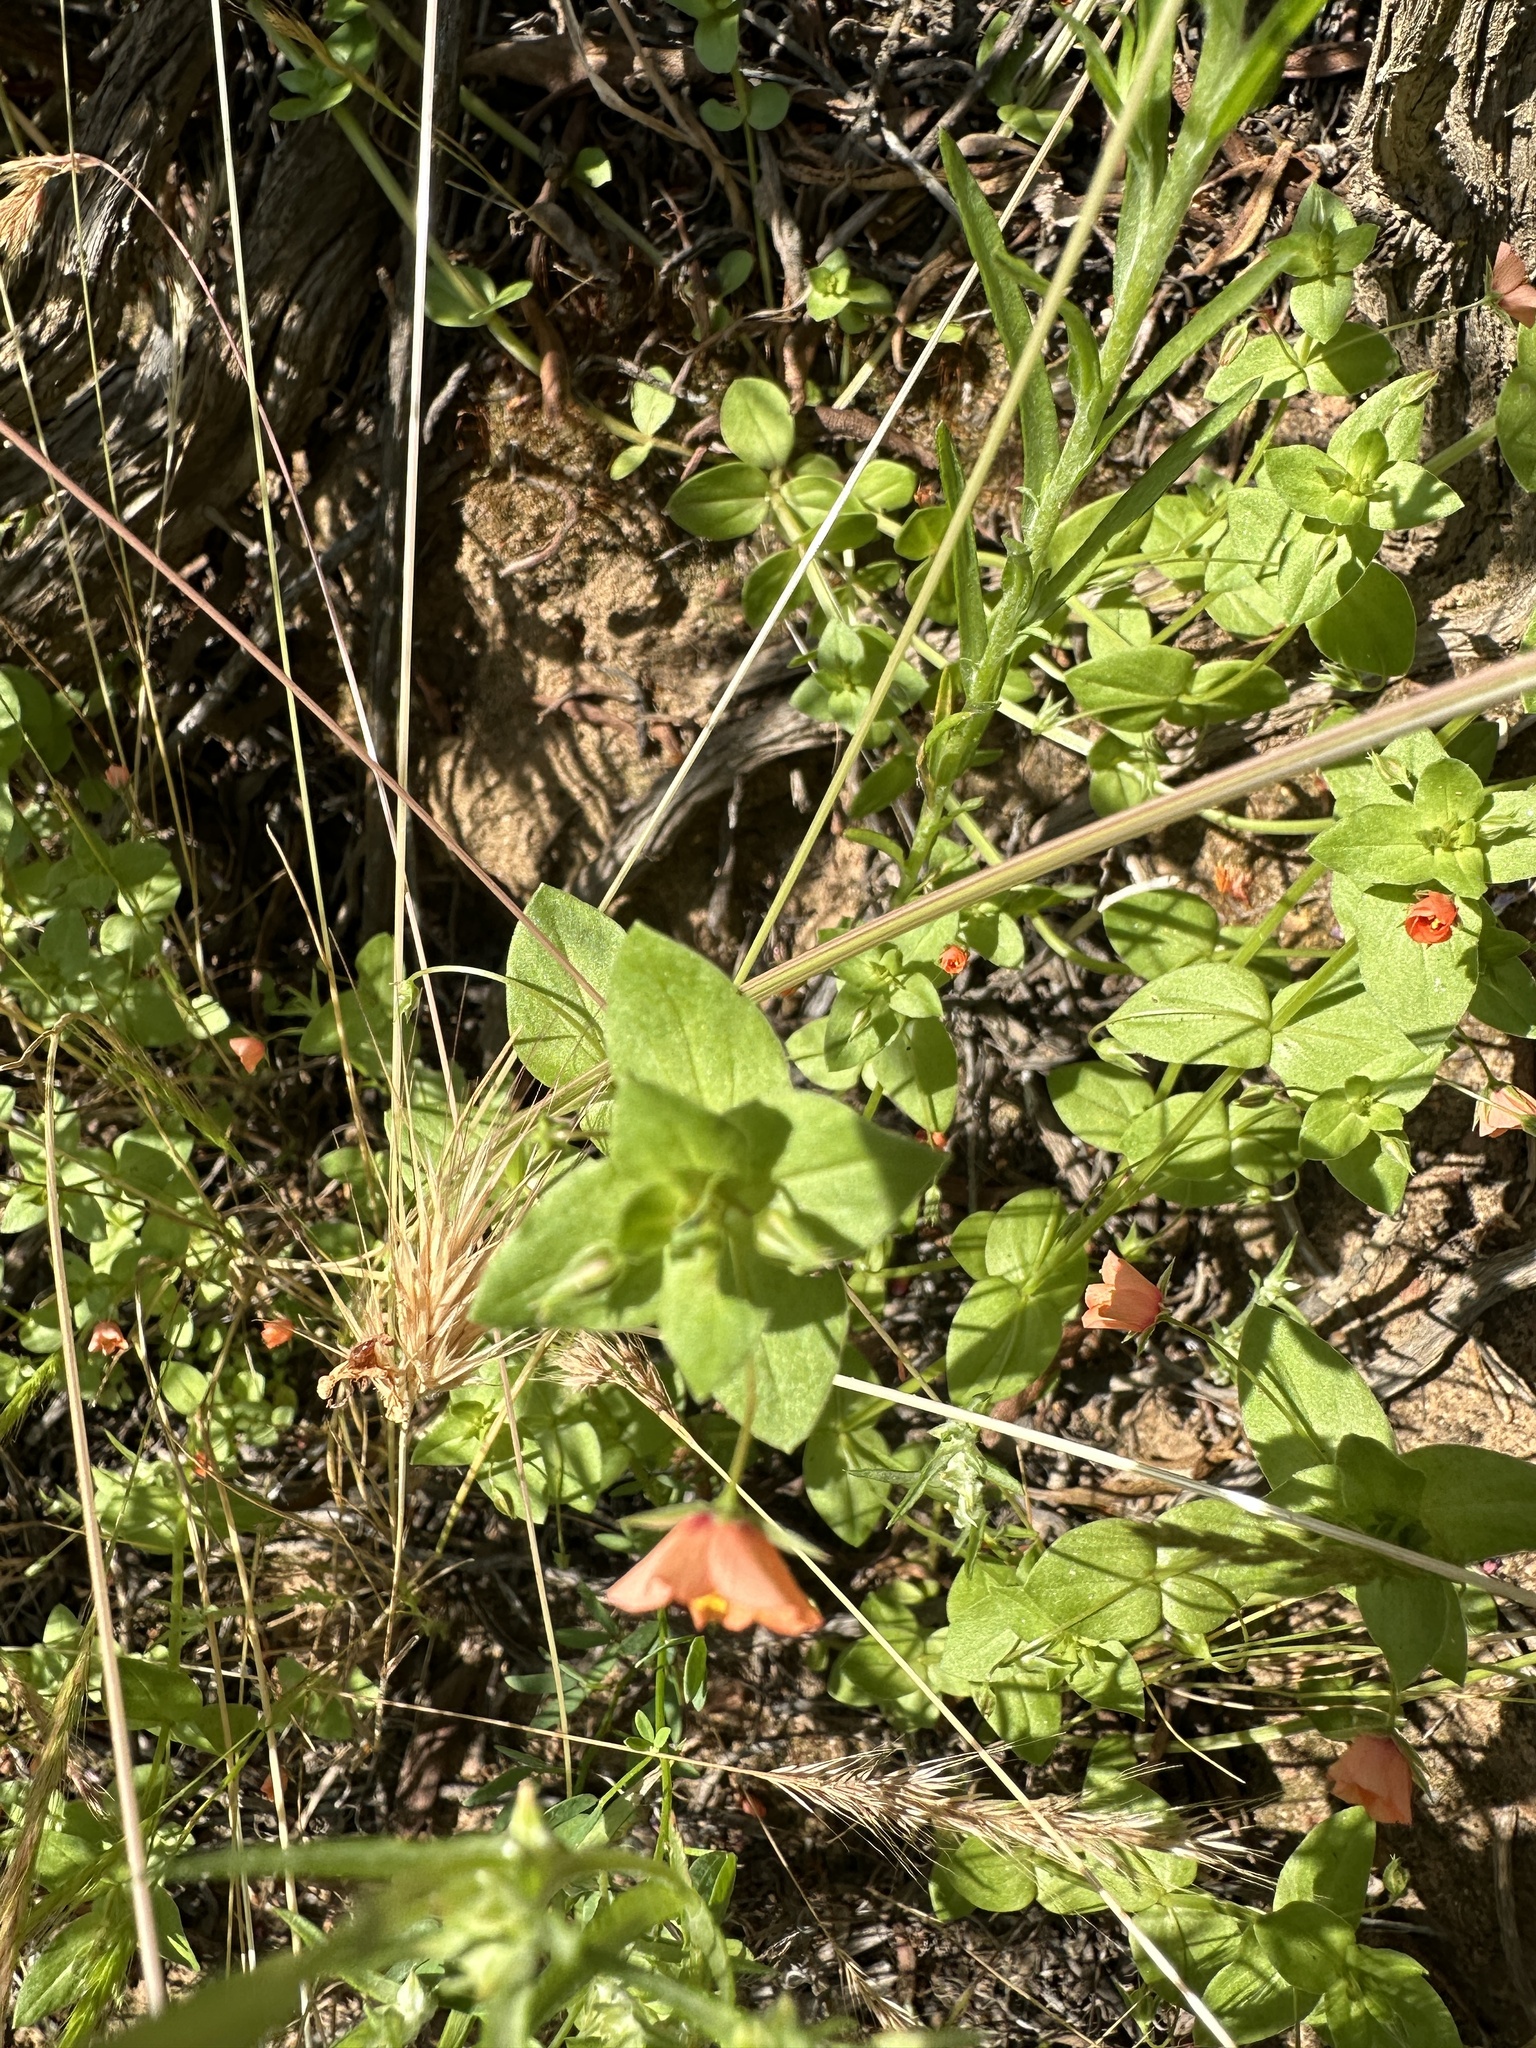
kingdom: Plantae
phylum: Tracheophyta
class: Magnoliopsida
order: Ericales
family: Primulaceae
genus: Lysimachia
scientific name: Lysimachia arvensis
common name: Scarlet pimpernel
